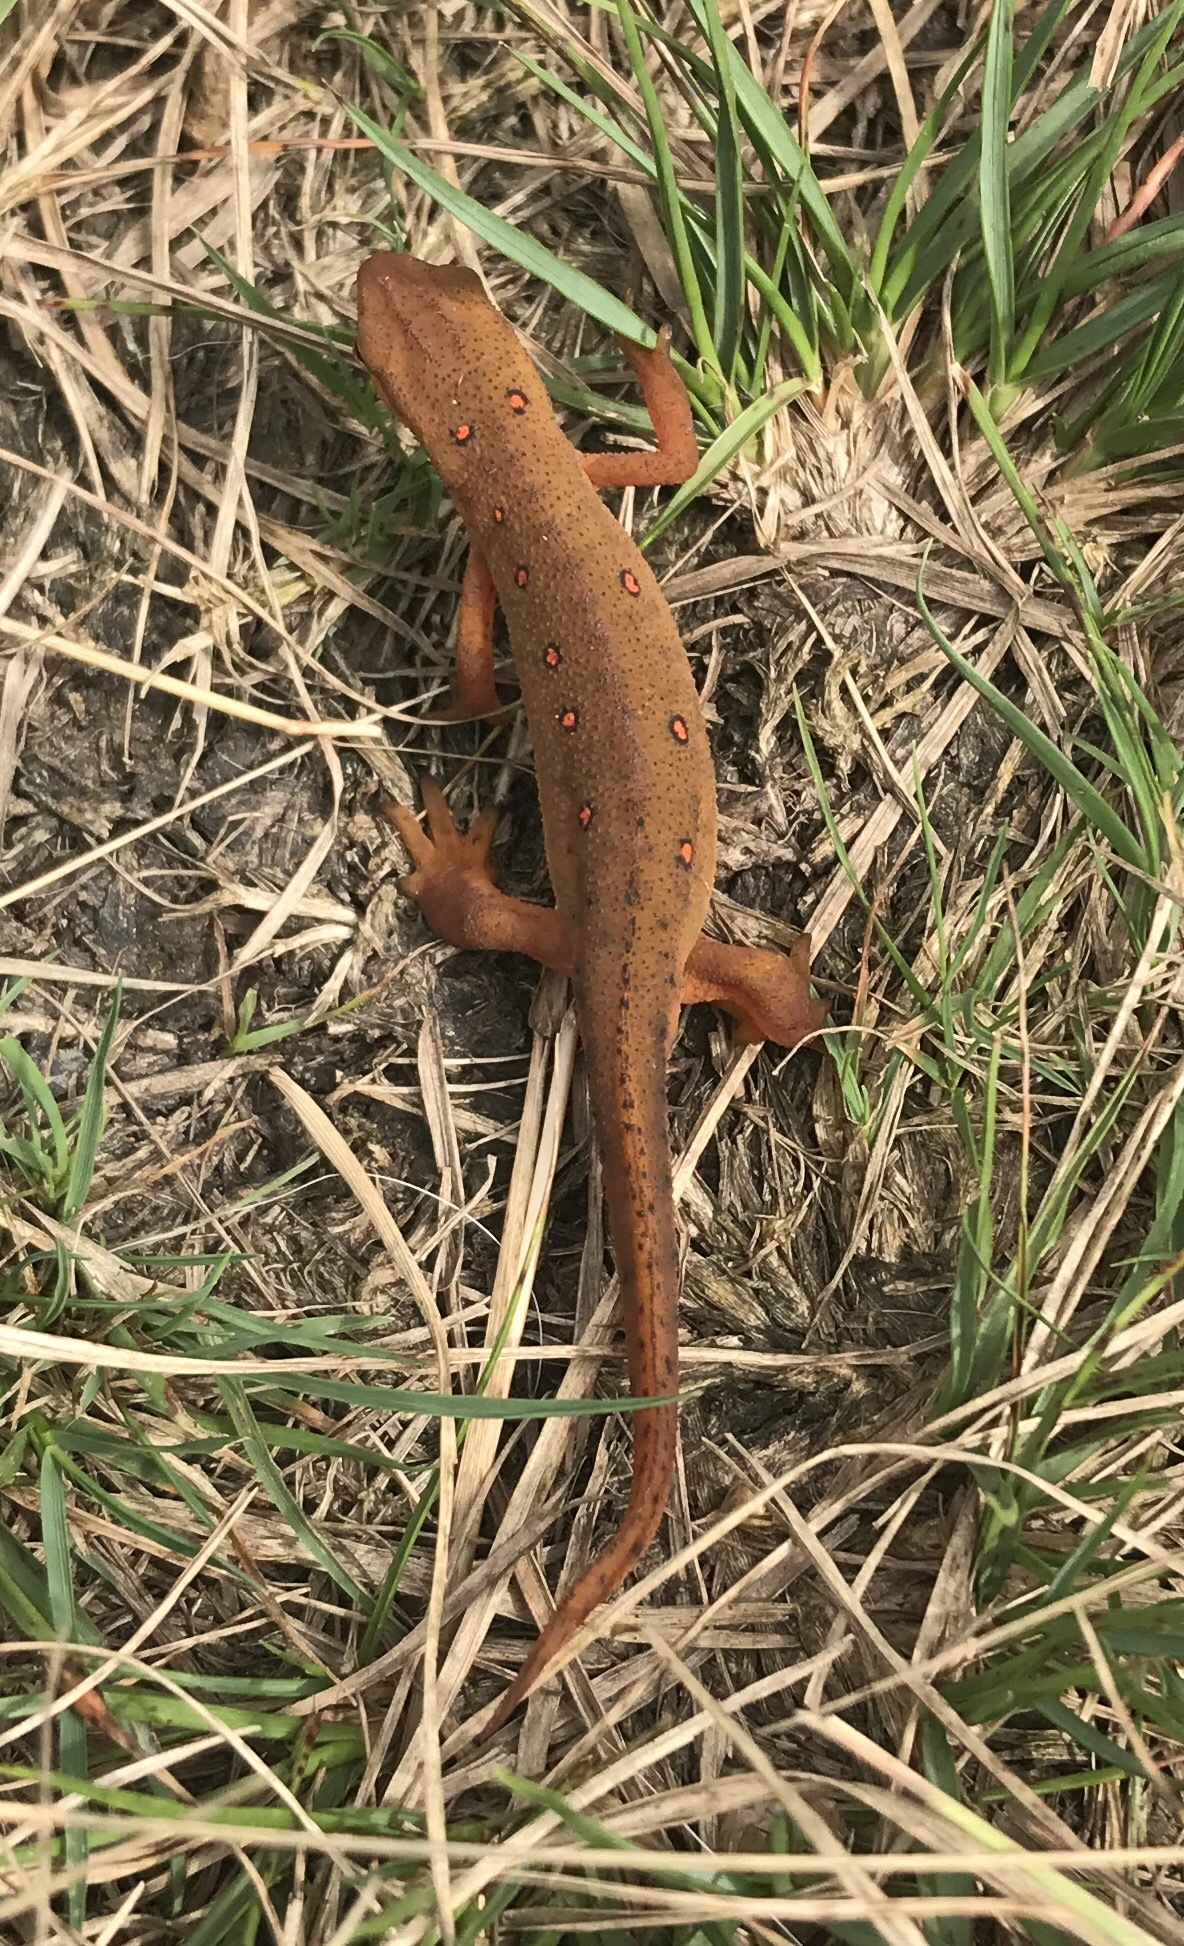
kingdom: Animalia
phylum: Chordata
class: Amphibia
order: Caudata
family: Salamandridae
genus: Notophthalmus
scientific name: Notophthalmus viridescens
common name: Eastern newt
